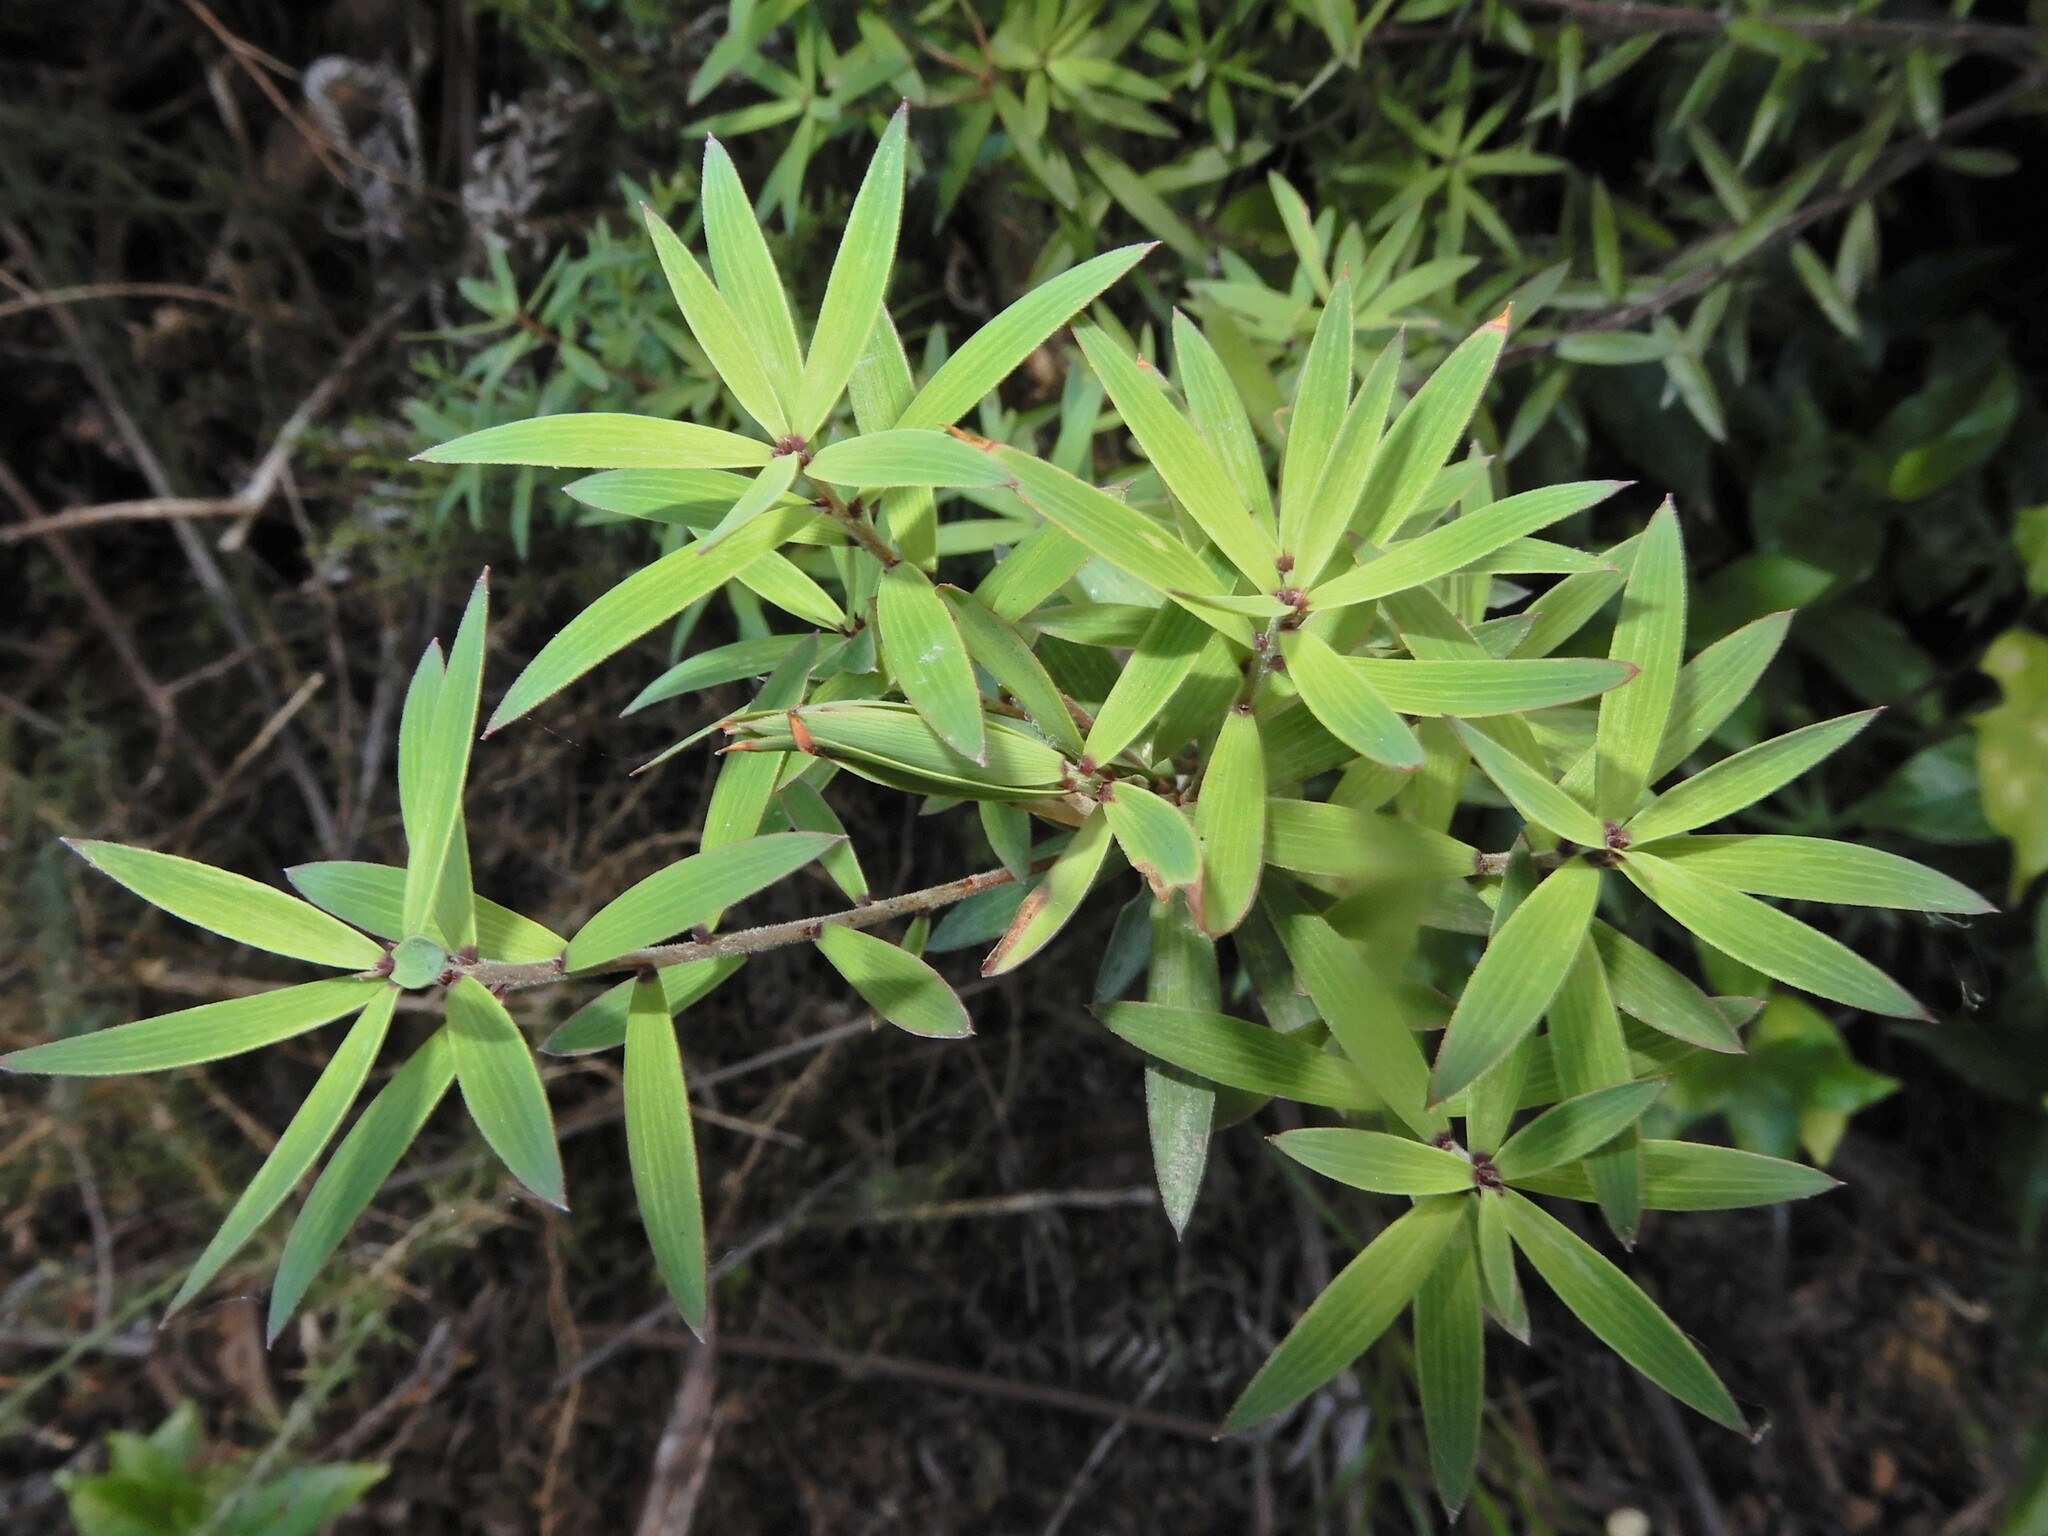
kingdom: Plantae
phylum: Tracheophyta
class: Magnoliopsida
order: Ericales
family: Ericaceae
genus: Leucopogon
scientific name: Leucopogon fasciculatus
